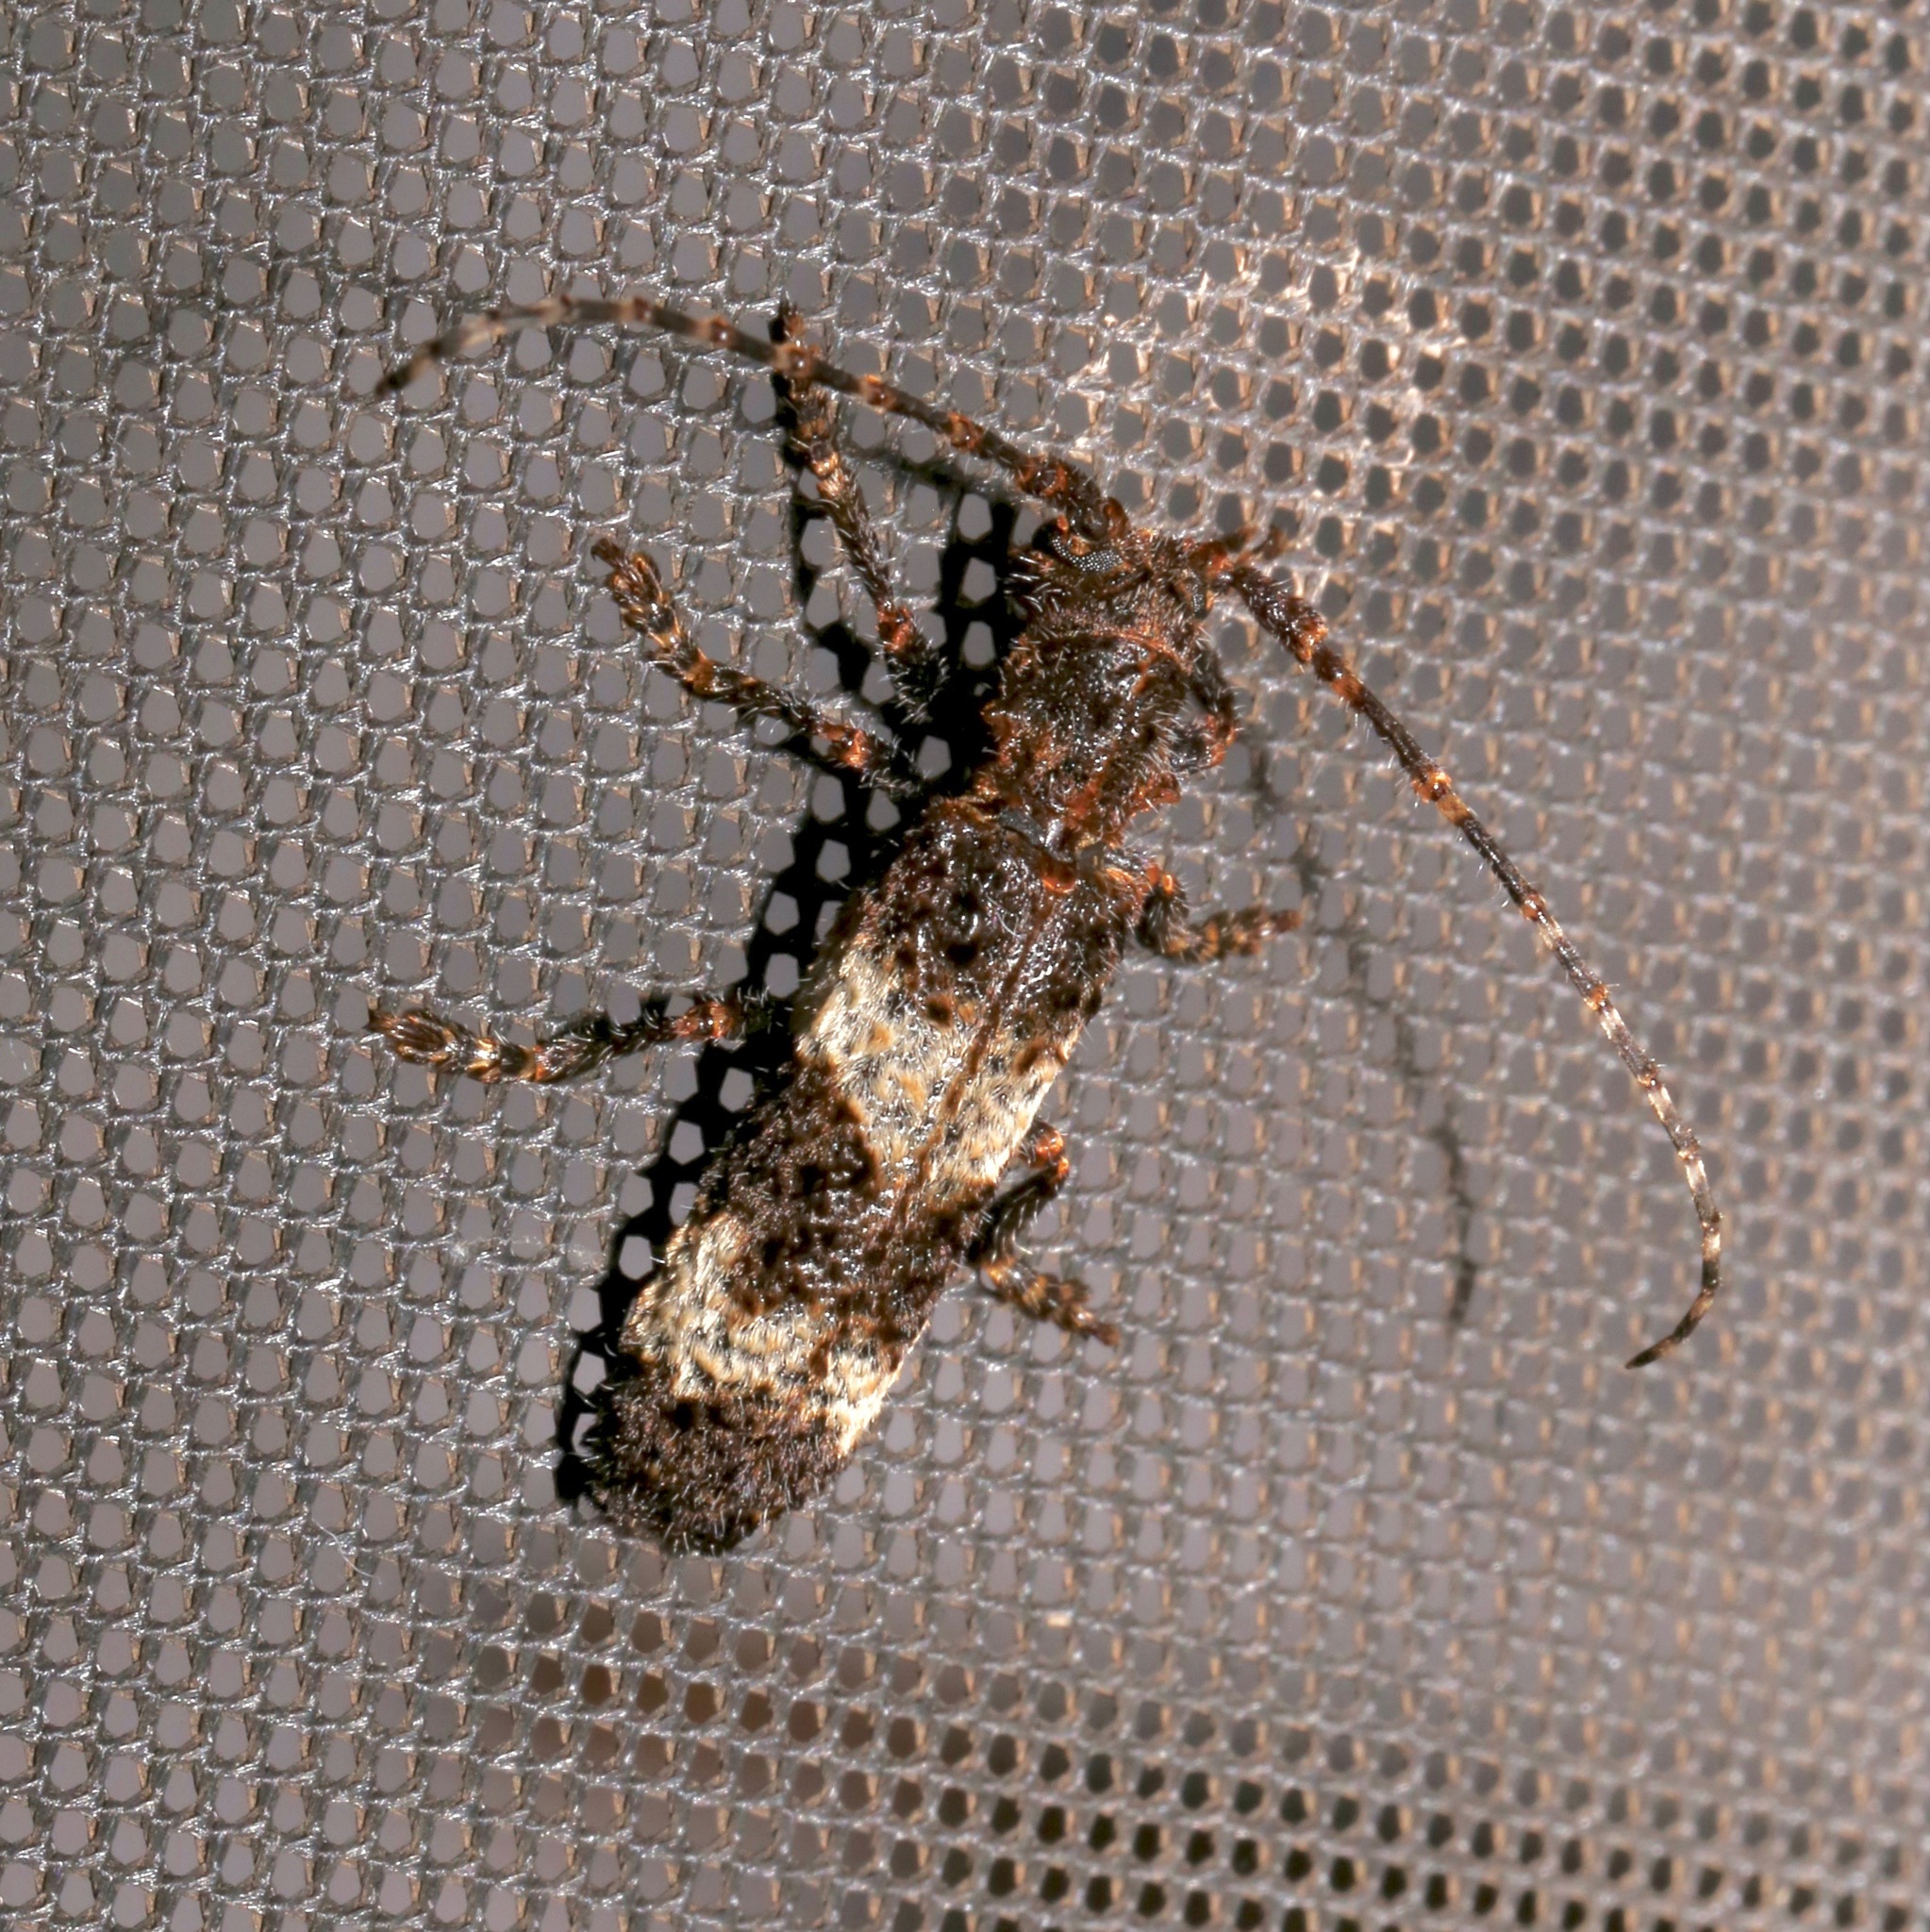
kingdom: Animalia
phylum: Arthropoda
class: Insecta
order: Coleoptera
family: Cerambycidae
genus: Cymatura
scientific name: Cymatura mucorea
